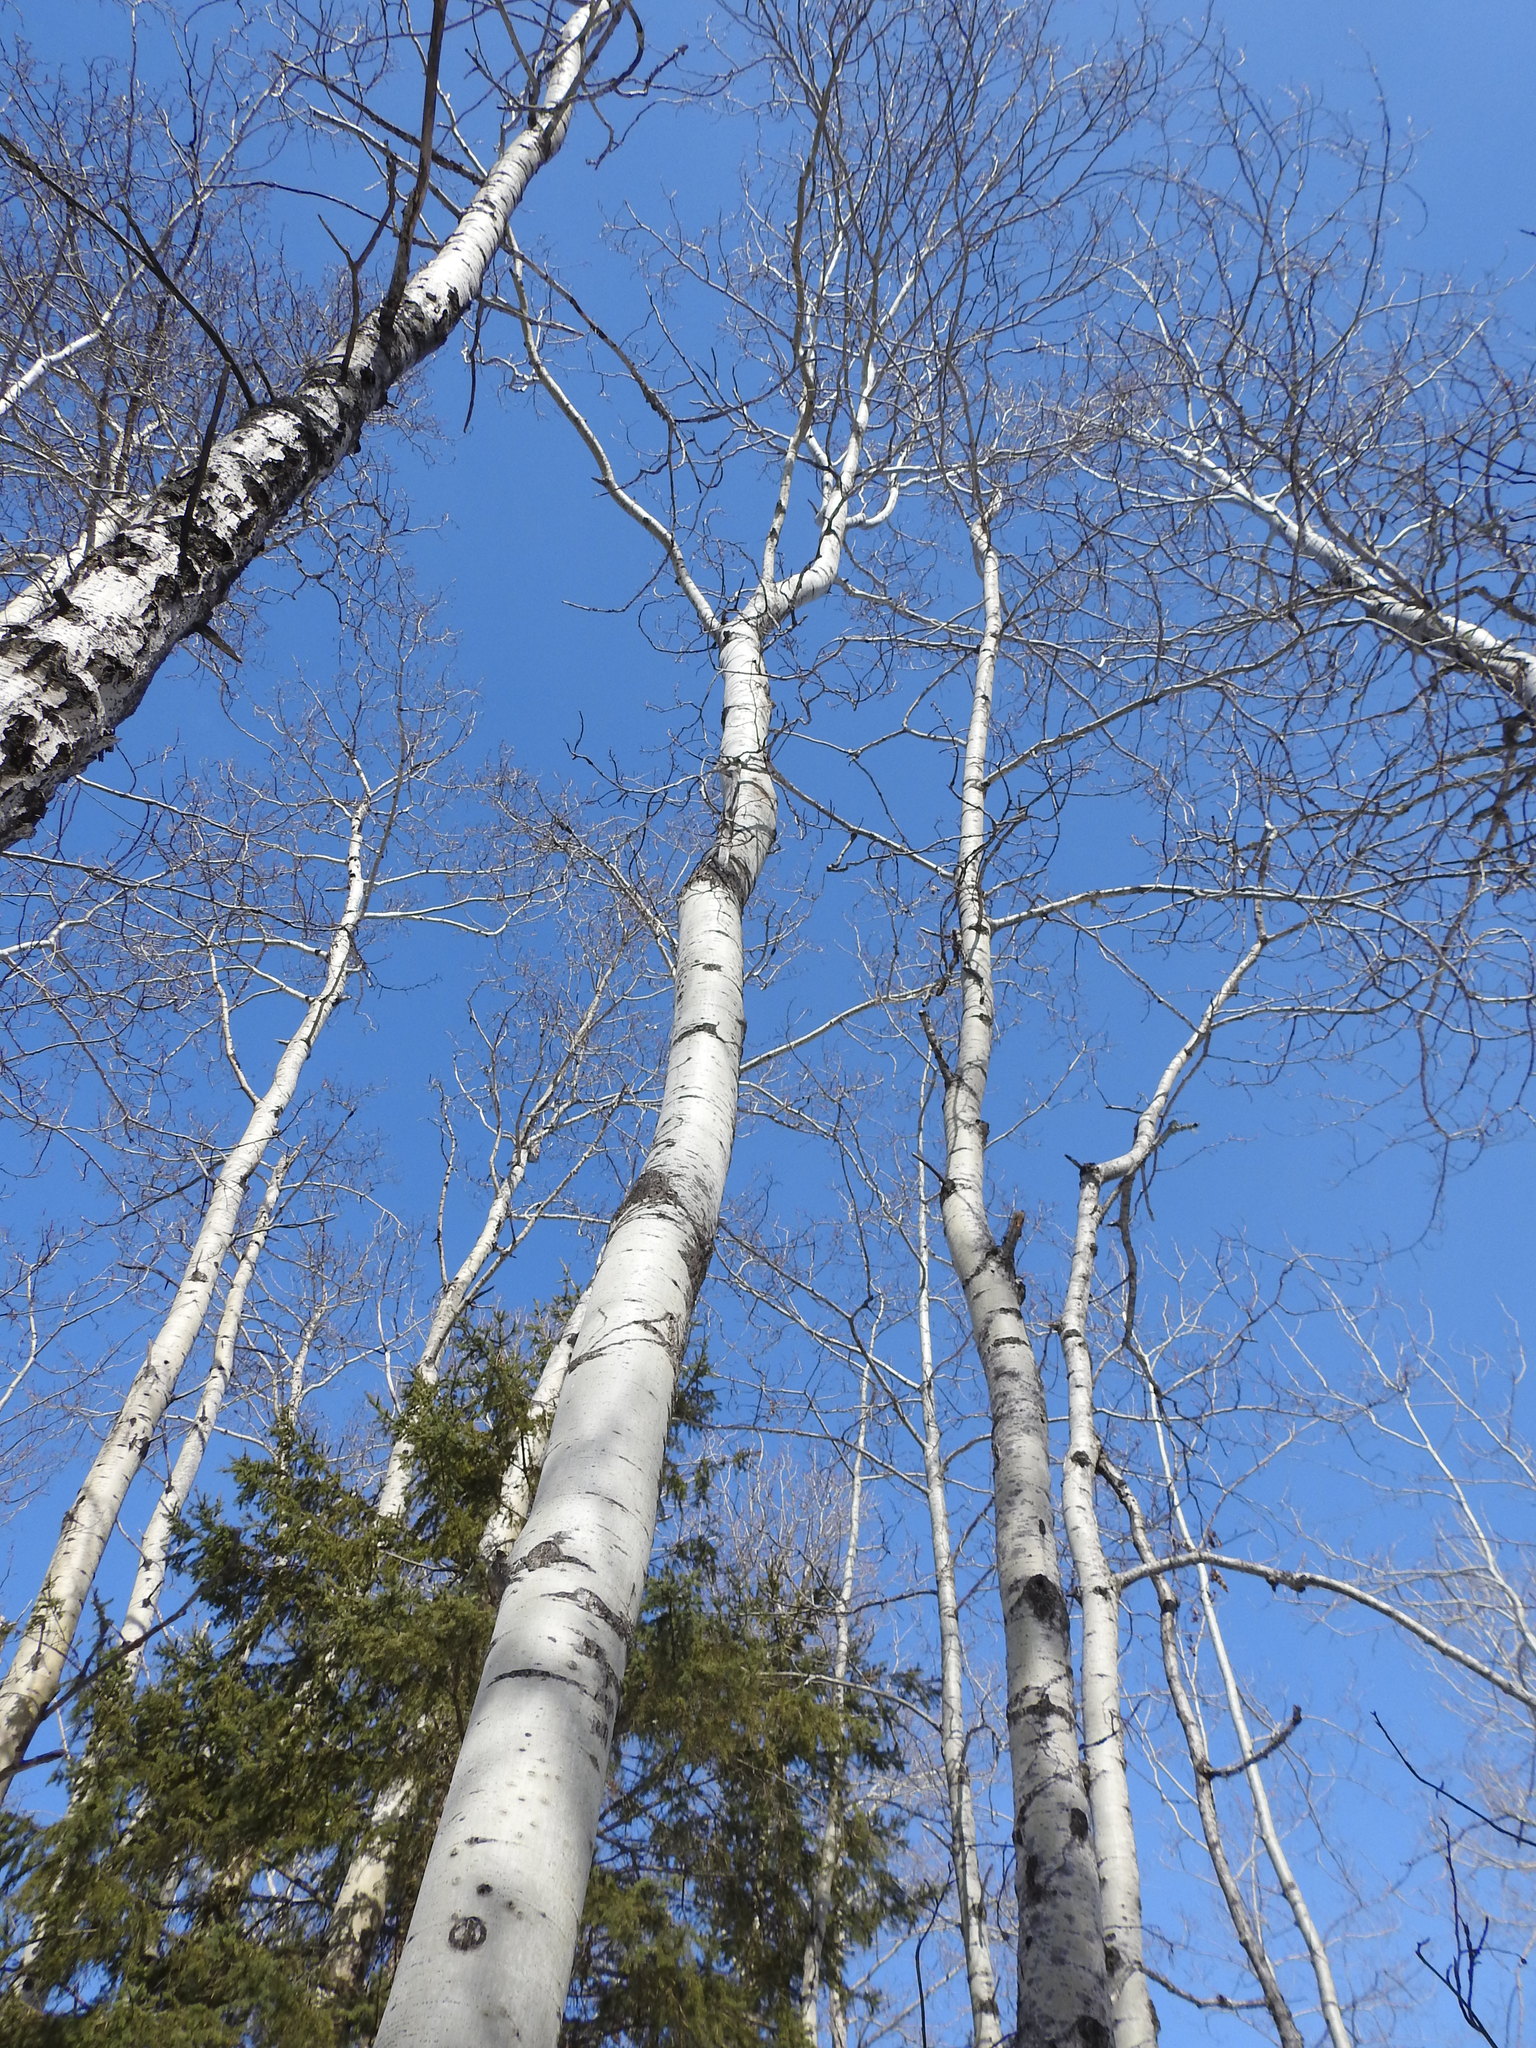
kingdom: Plantae
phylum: Tracheophyta
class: Magnoliopsida
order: Malpighiales
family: Salicaceae
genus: Populus
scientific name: Populus tremuloides
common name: Quaking aspen
